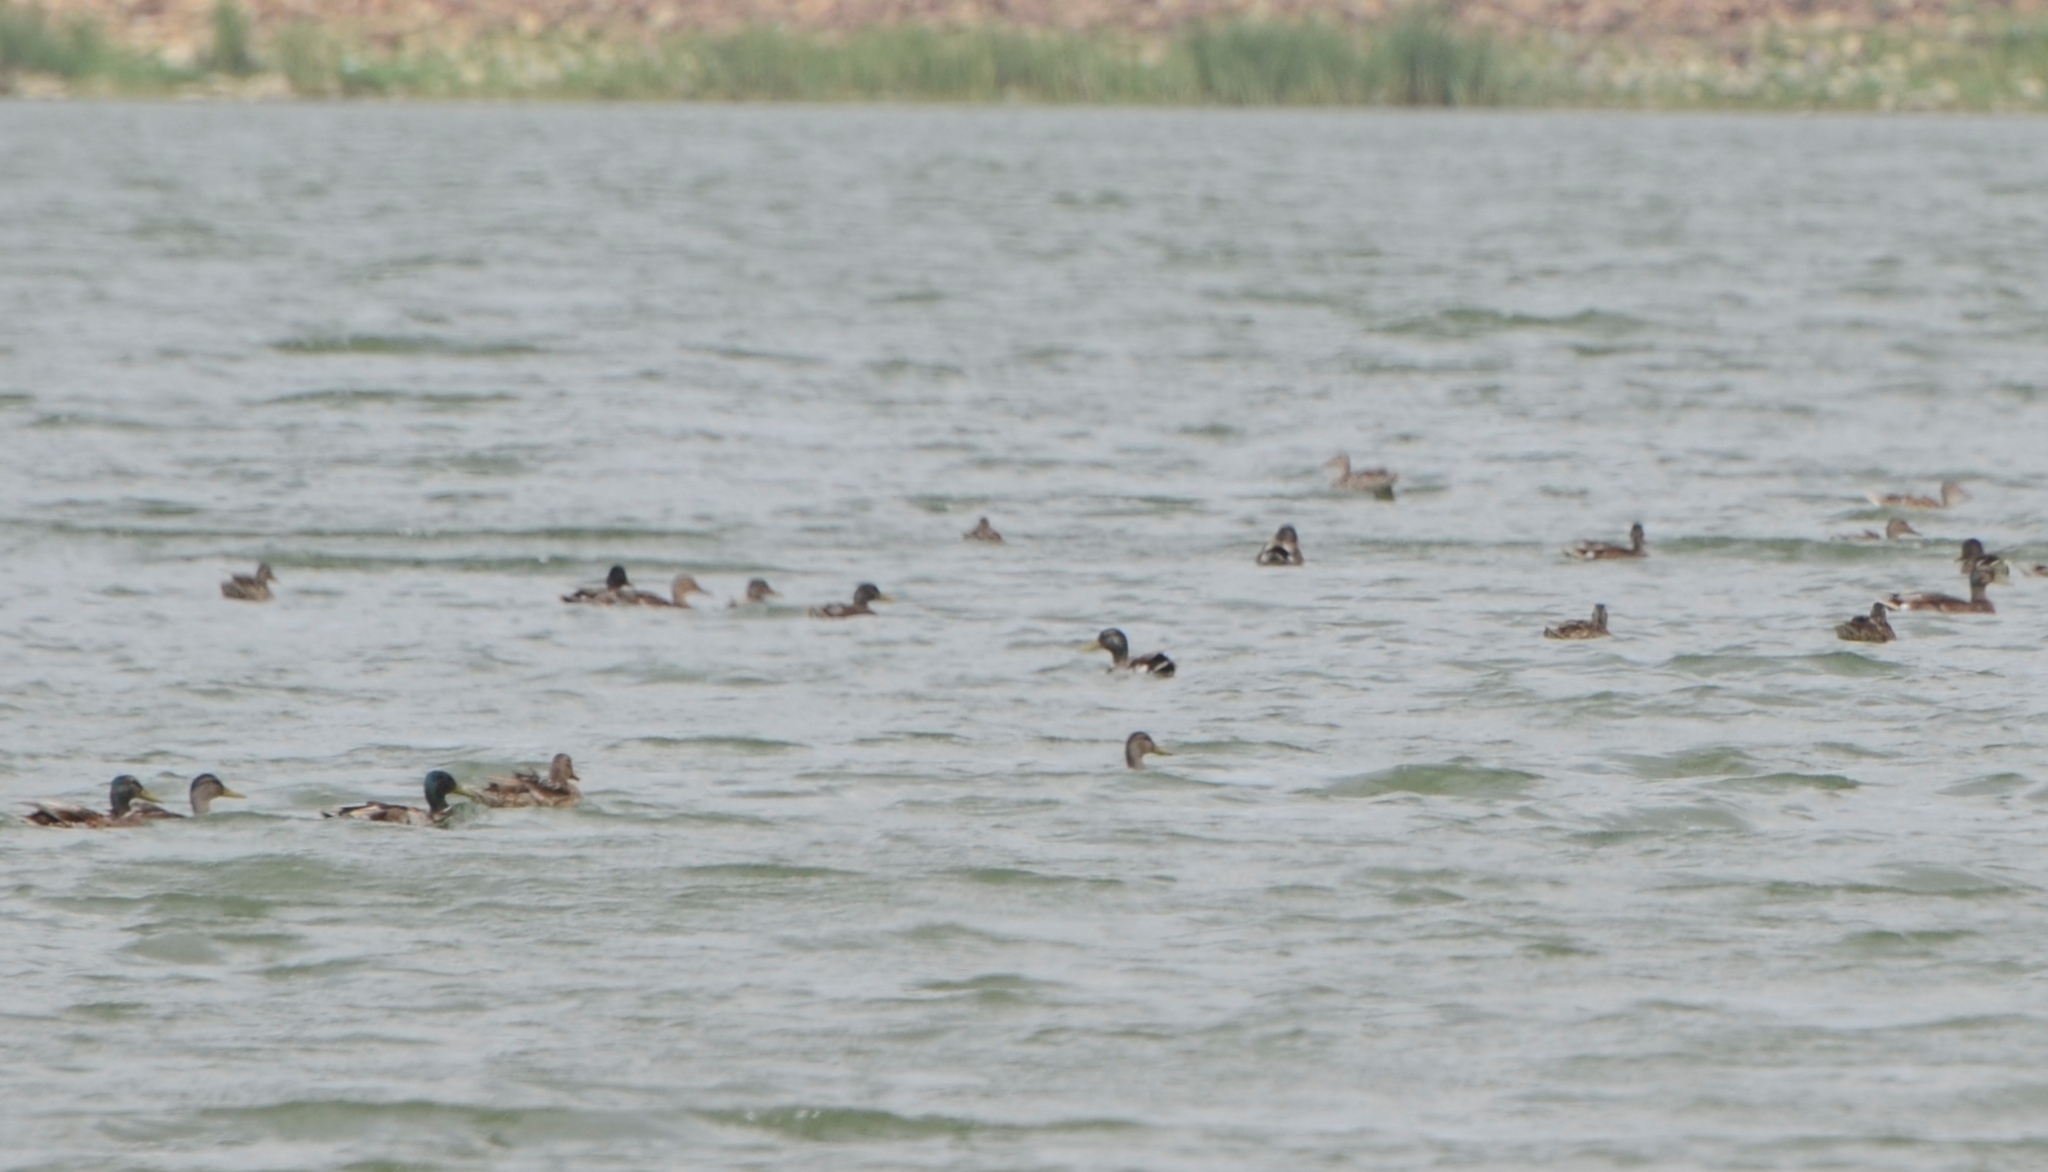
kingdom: Animalia
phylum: Chordata
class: Aves
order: Anseriformes
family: Anatidae
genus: Anas
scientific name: Anas platyrhynchos
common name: Mallard
